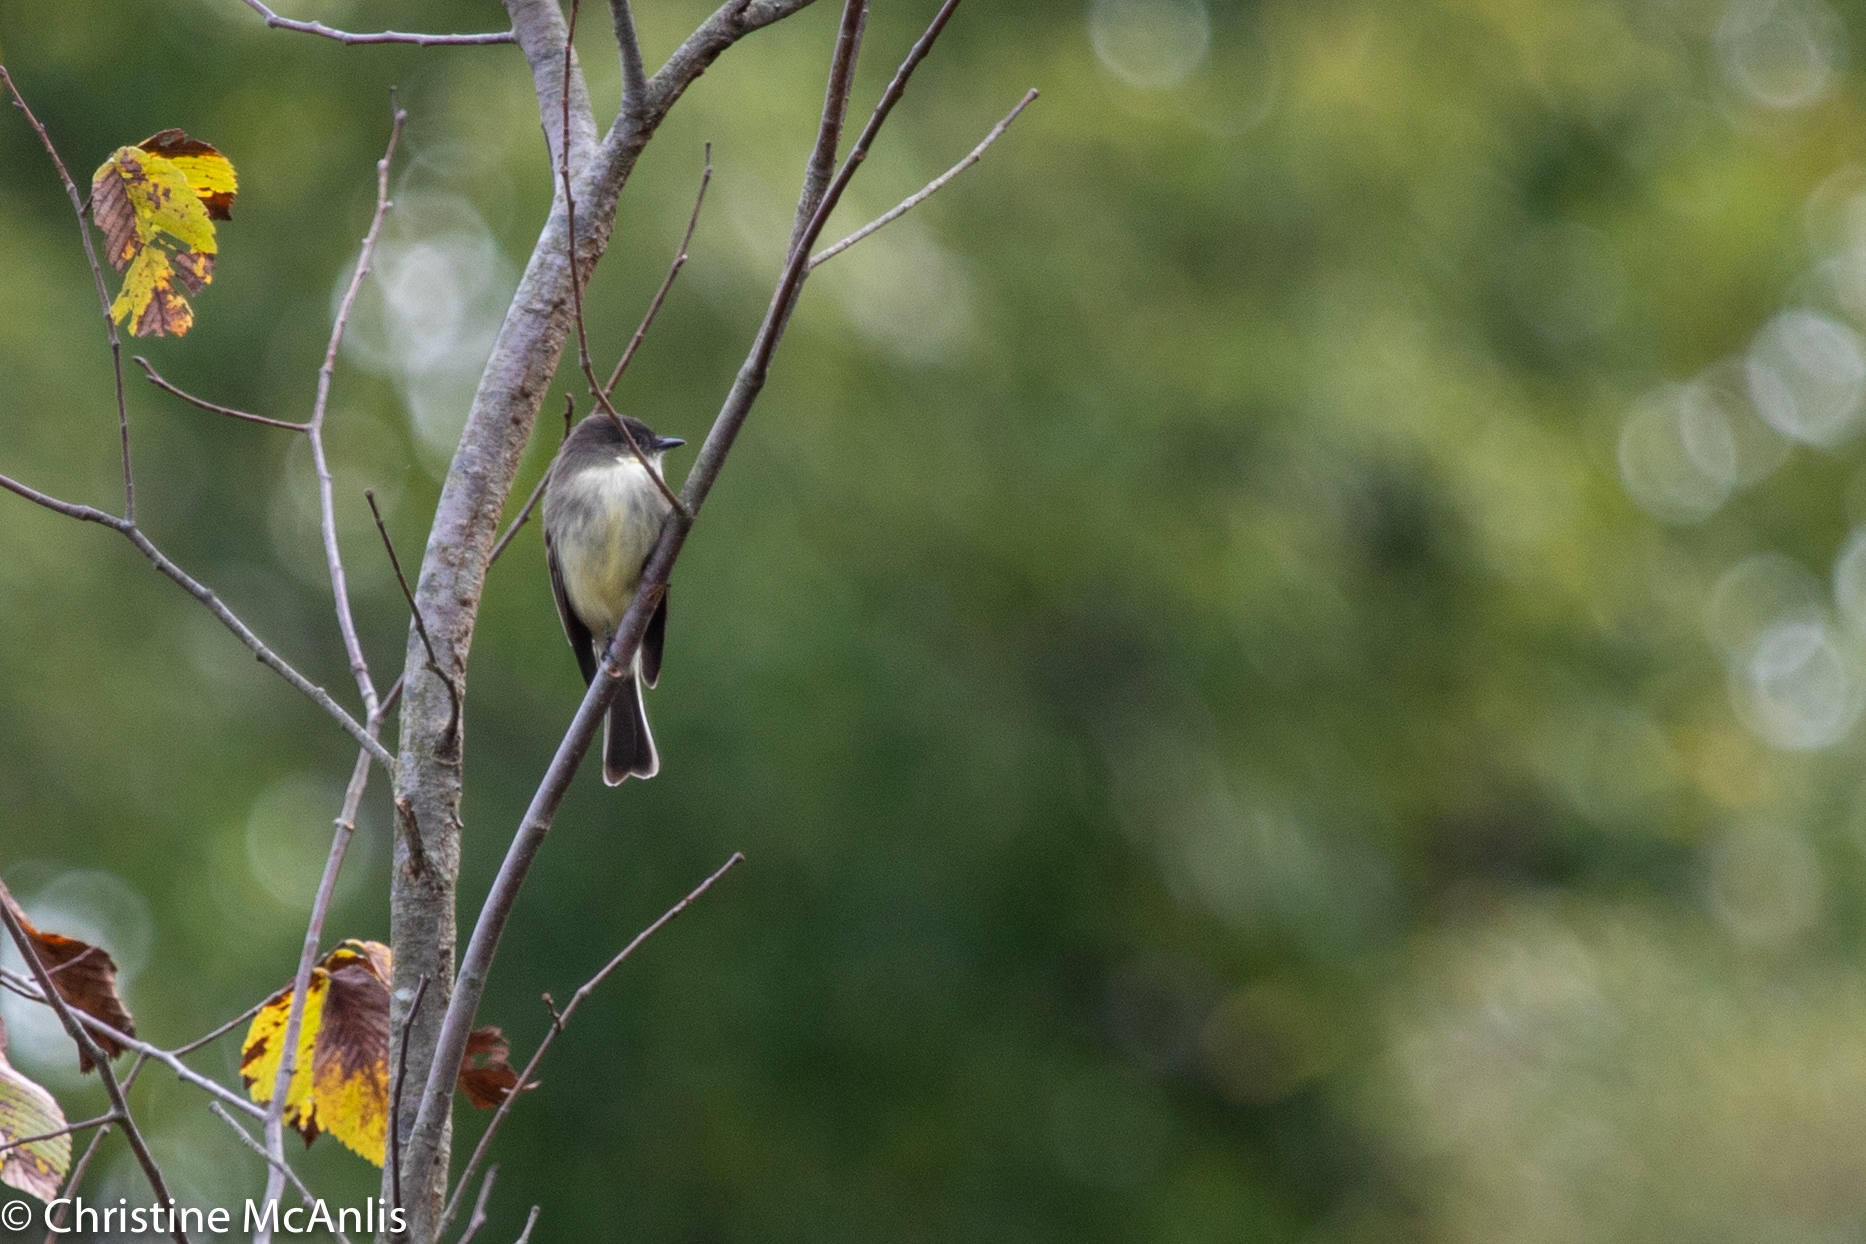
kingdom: Animalia
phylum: Chordata
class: Aves
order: Passeriformes
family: Tyrannidae
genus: Sayornis
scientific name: Sayornis phoebe
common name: Eastern phoebe
